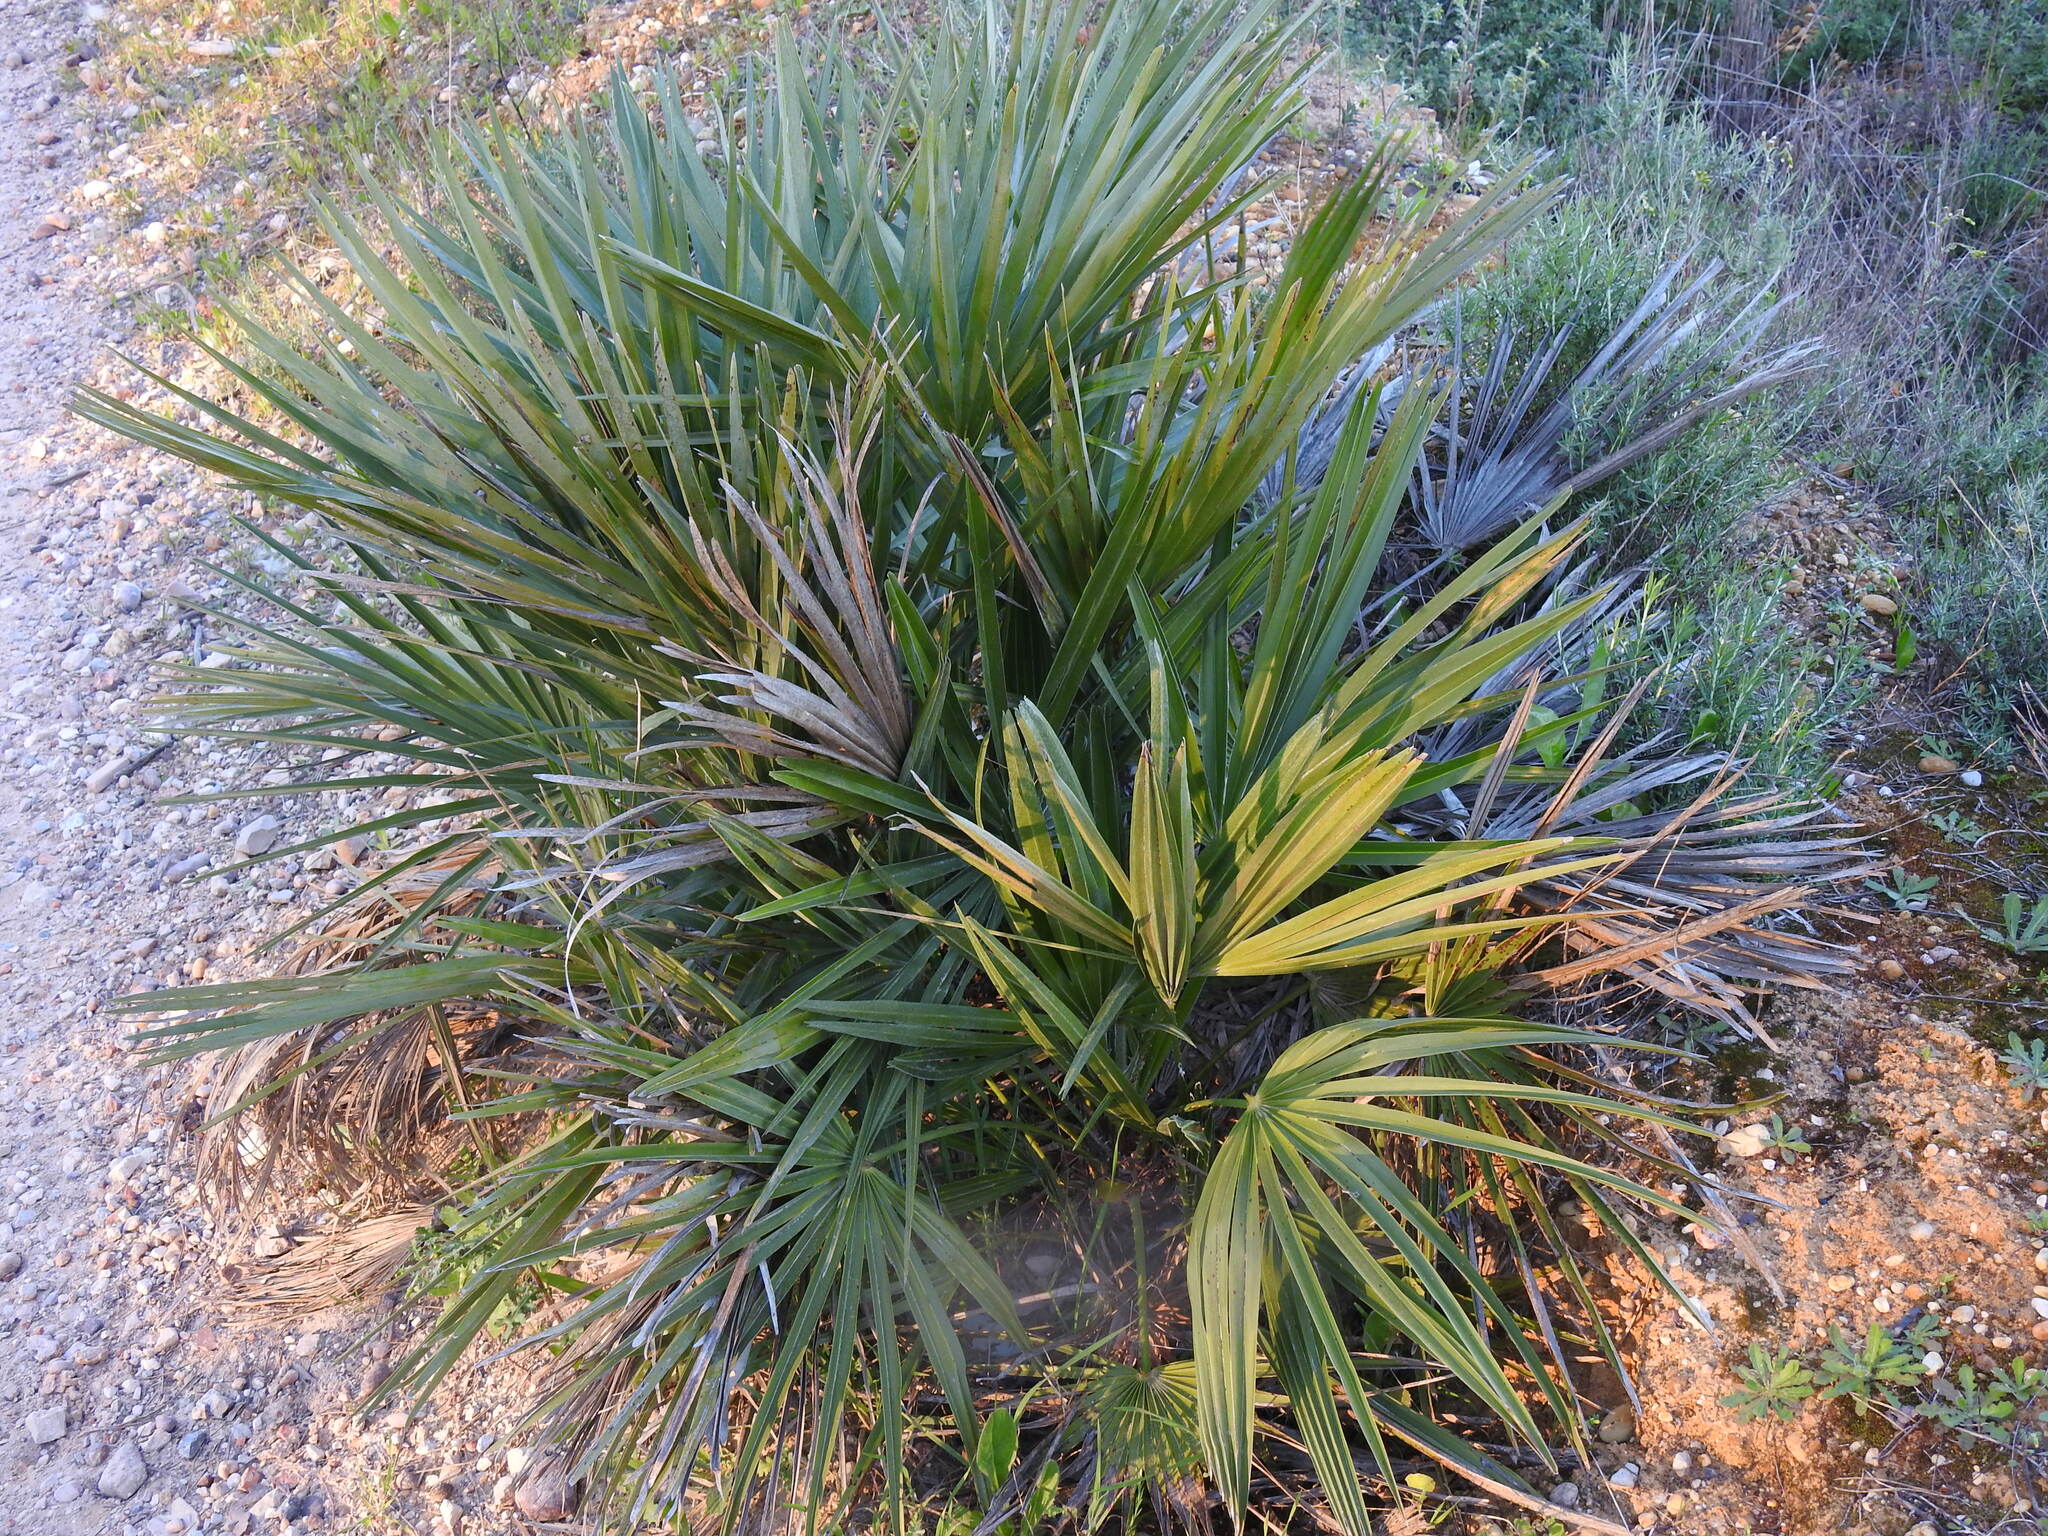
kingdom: Plantae
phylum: Tracheophyta
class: Liliopsida
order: Arecales
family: Arecaceae
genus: Chamaerops
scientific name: Chamaerops humilis
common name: Dwarf fan palm
